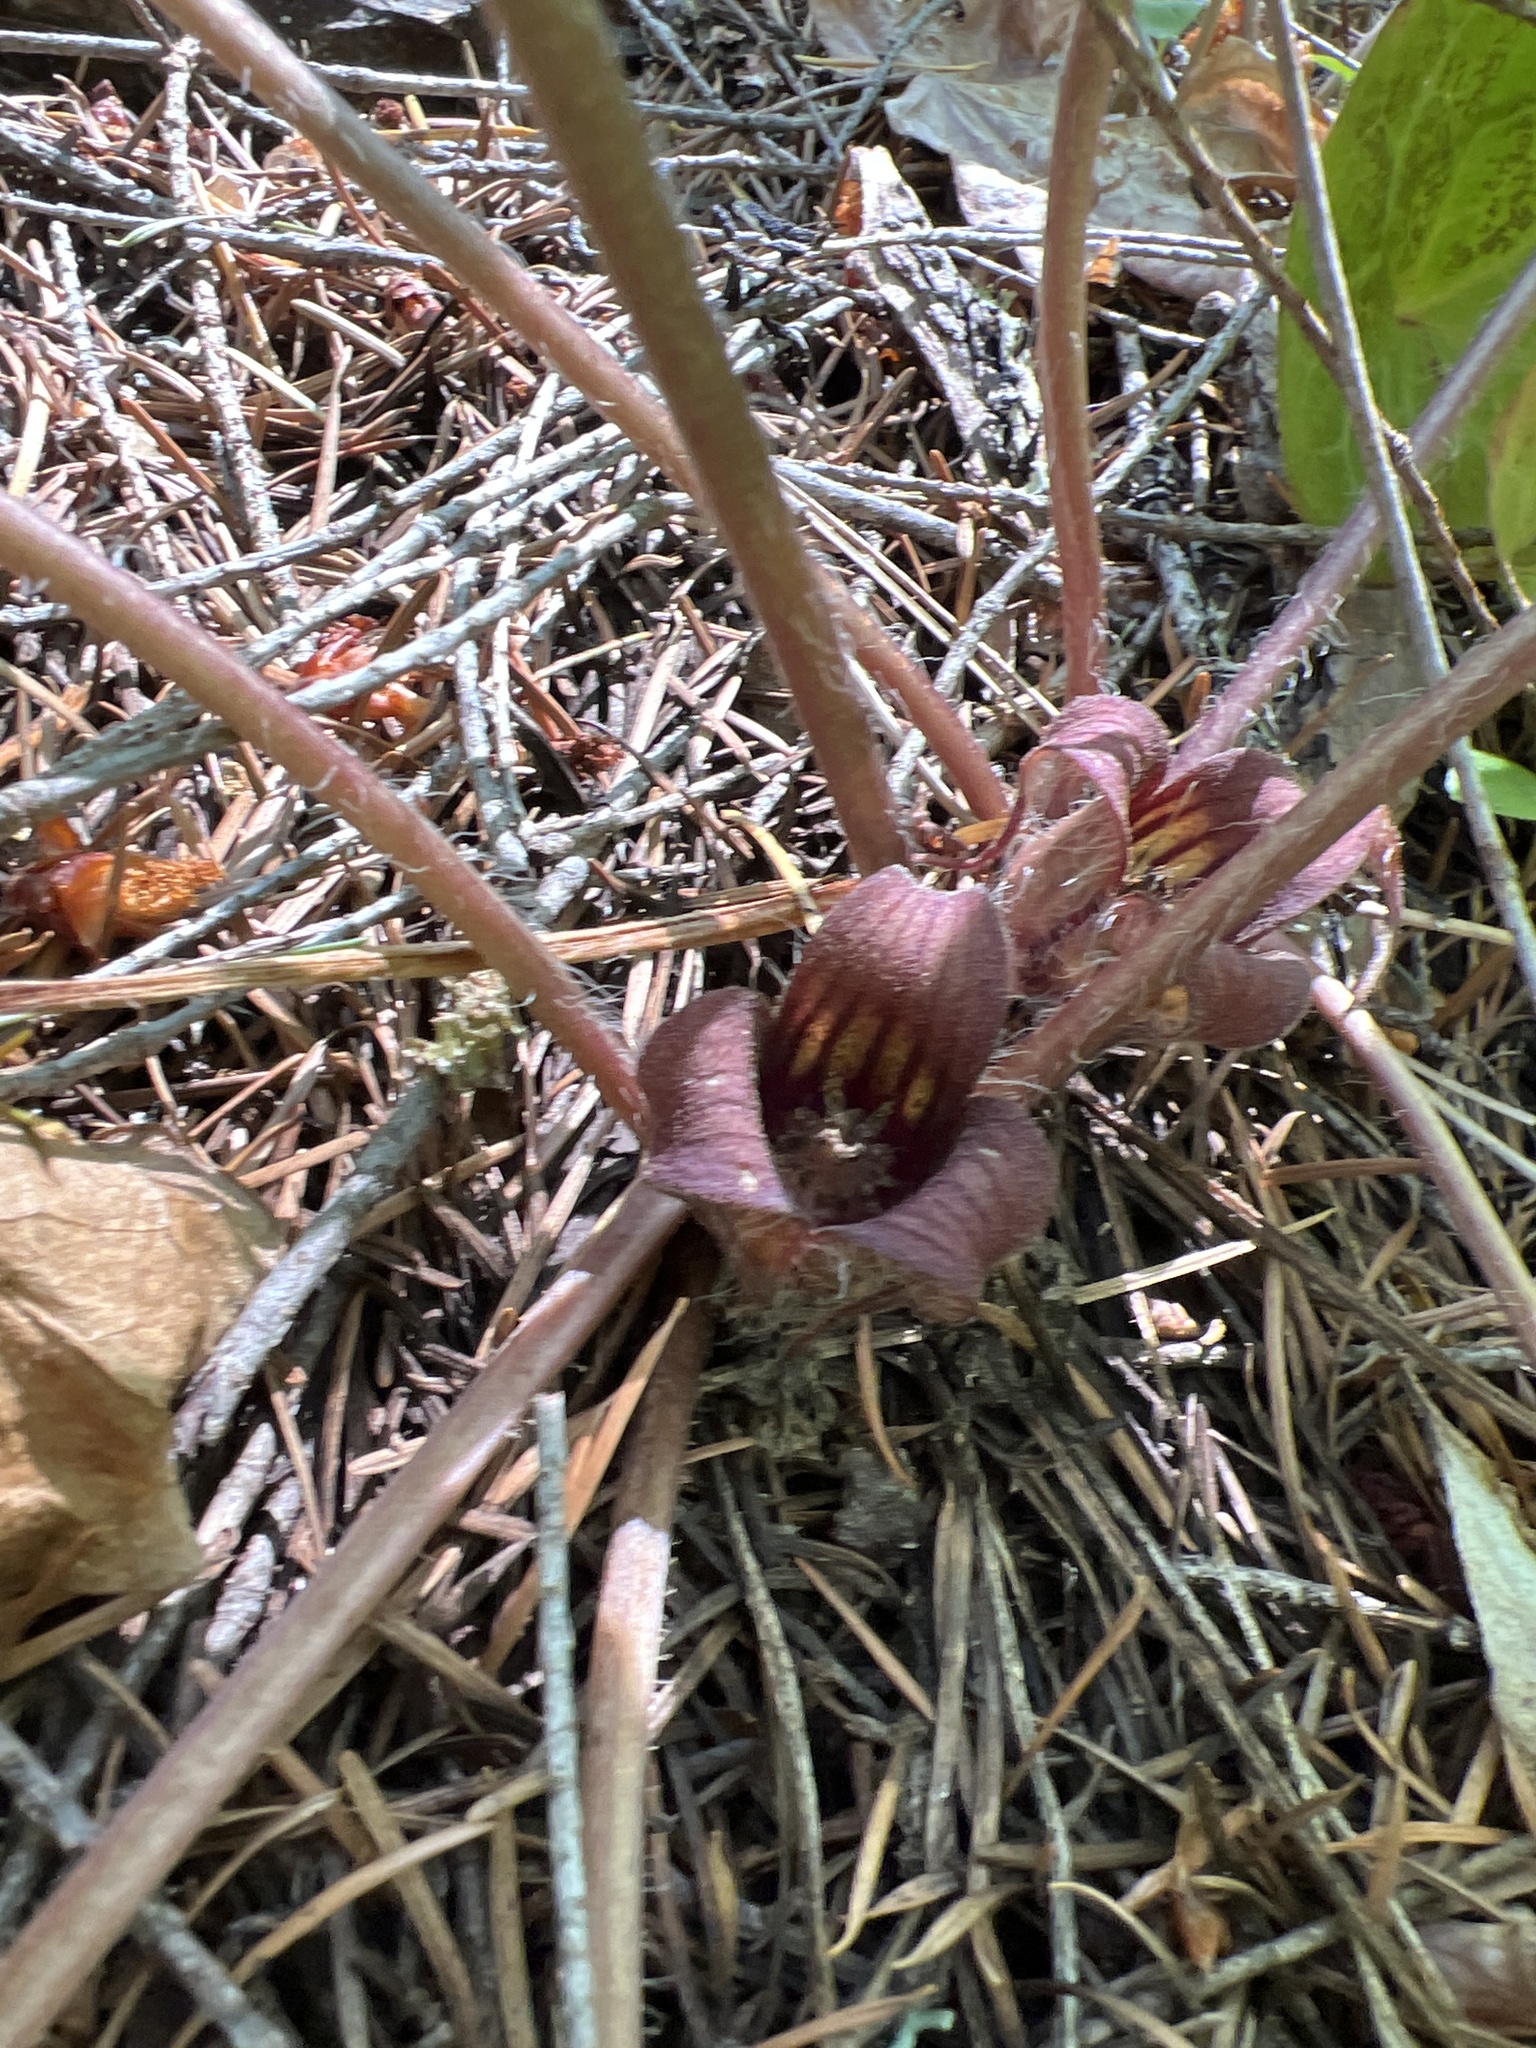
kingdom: Plantae
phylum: Tracheophyta
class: Magnoliopsida
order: Piperales
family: Aristolochiaceae
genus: Asarum
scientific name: Asarum hartwegii
